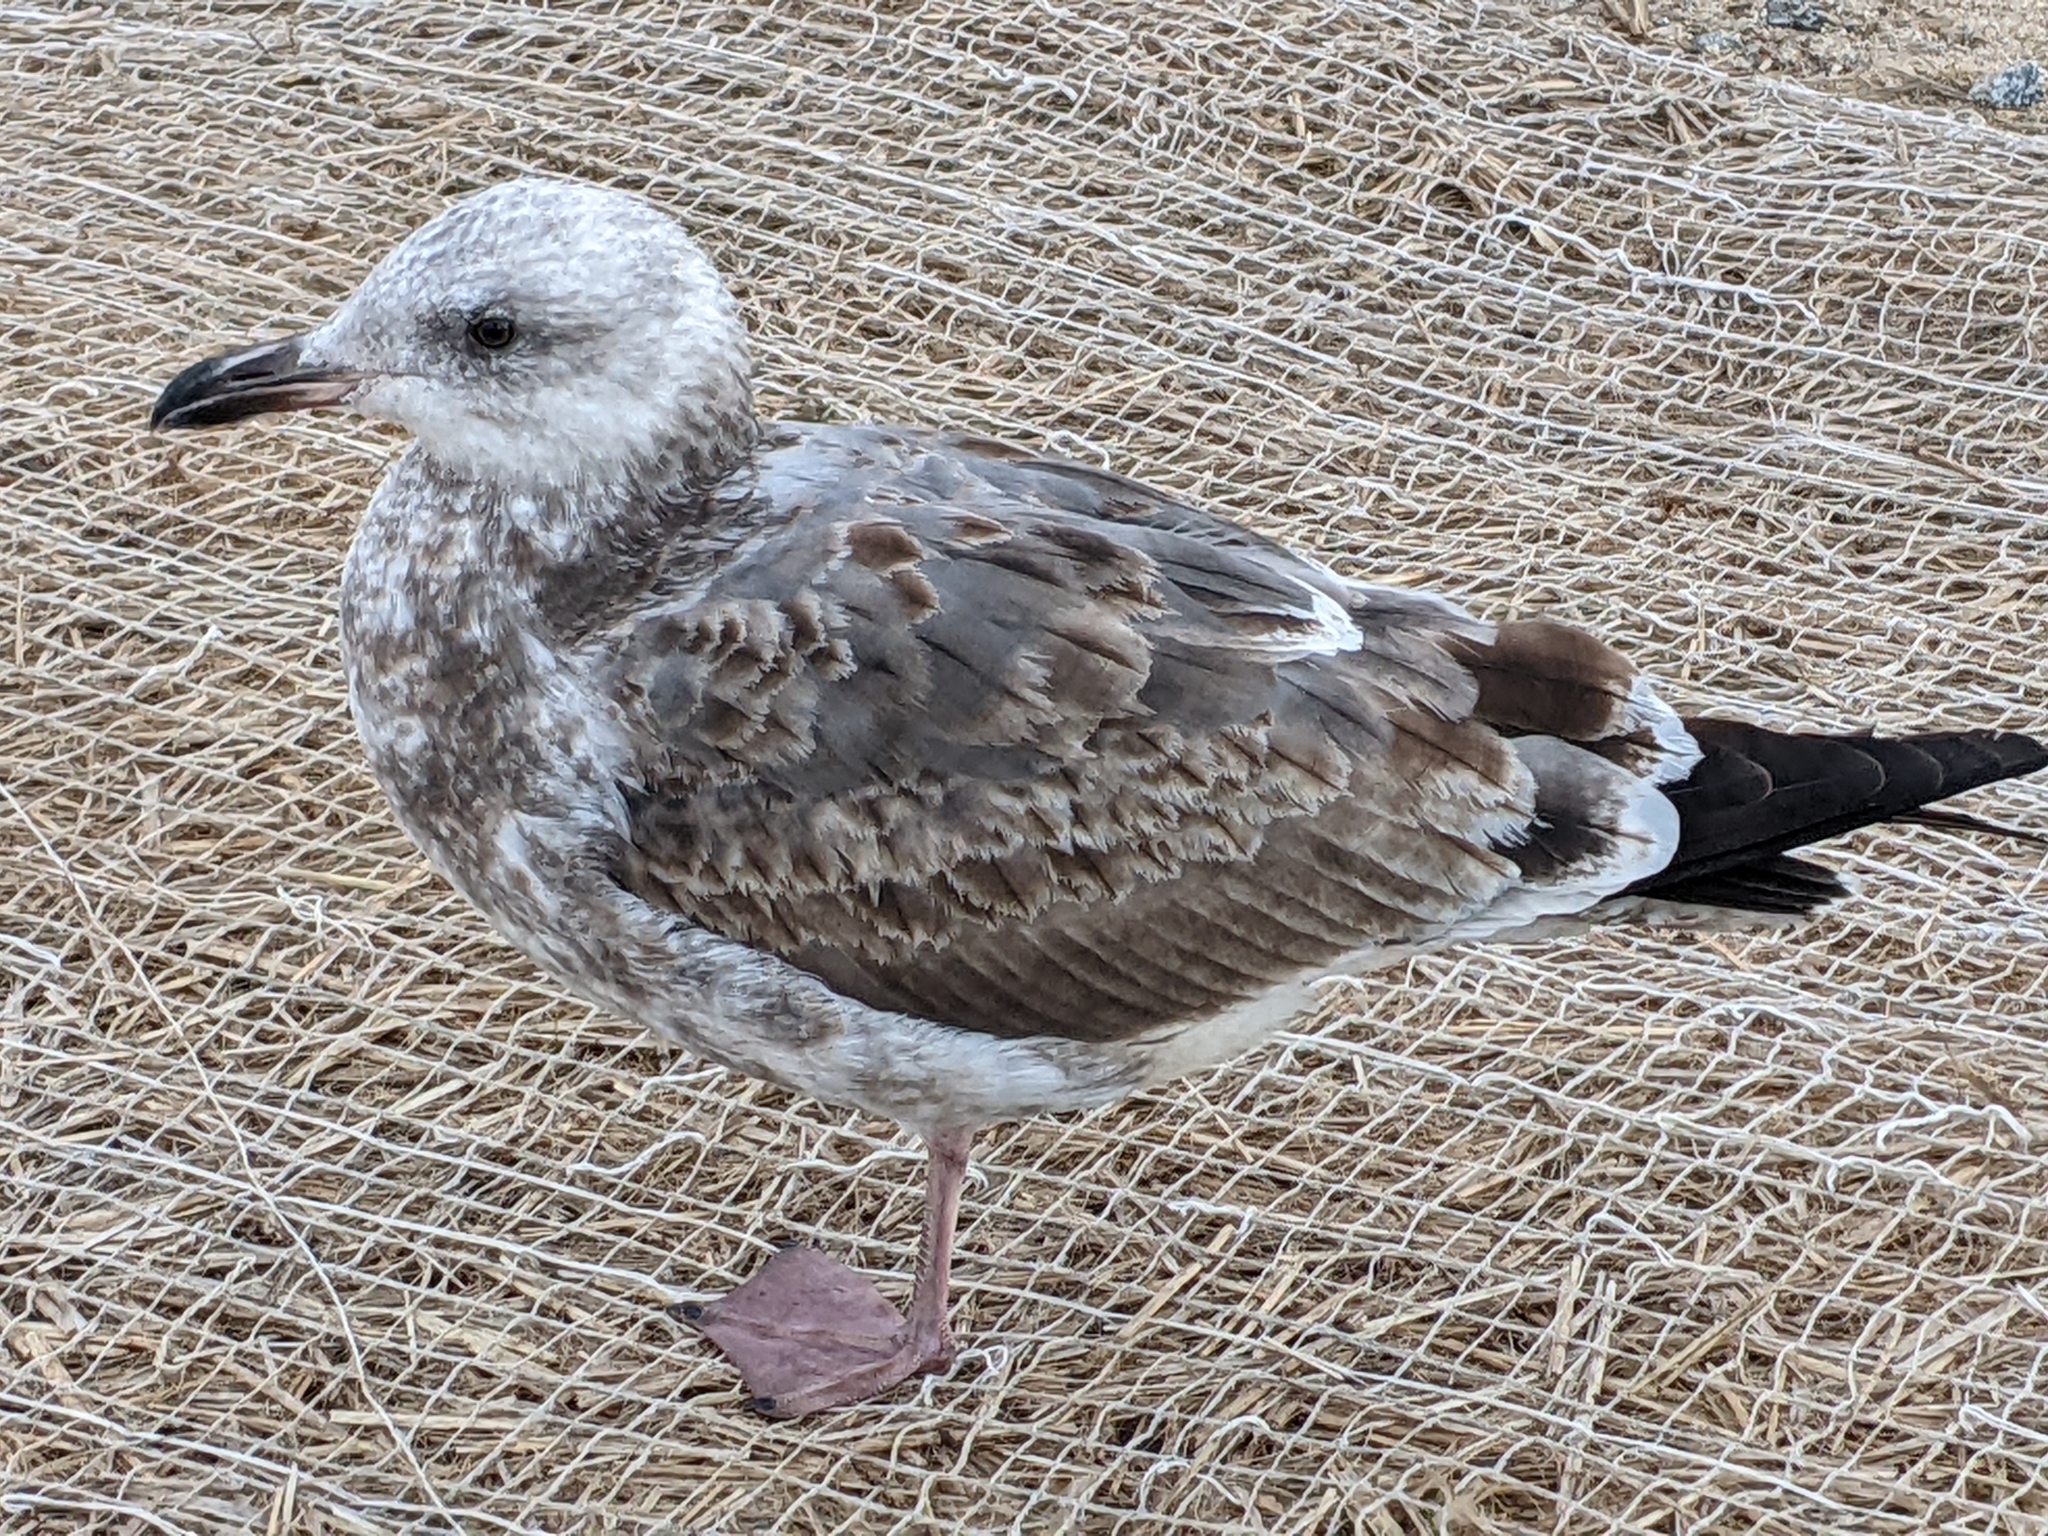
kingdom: Animalia
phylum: Chordata
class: Aves
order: Charadriiformes
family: Laridae
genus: Larus
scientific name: Larus occidentalis
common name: Western gull
